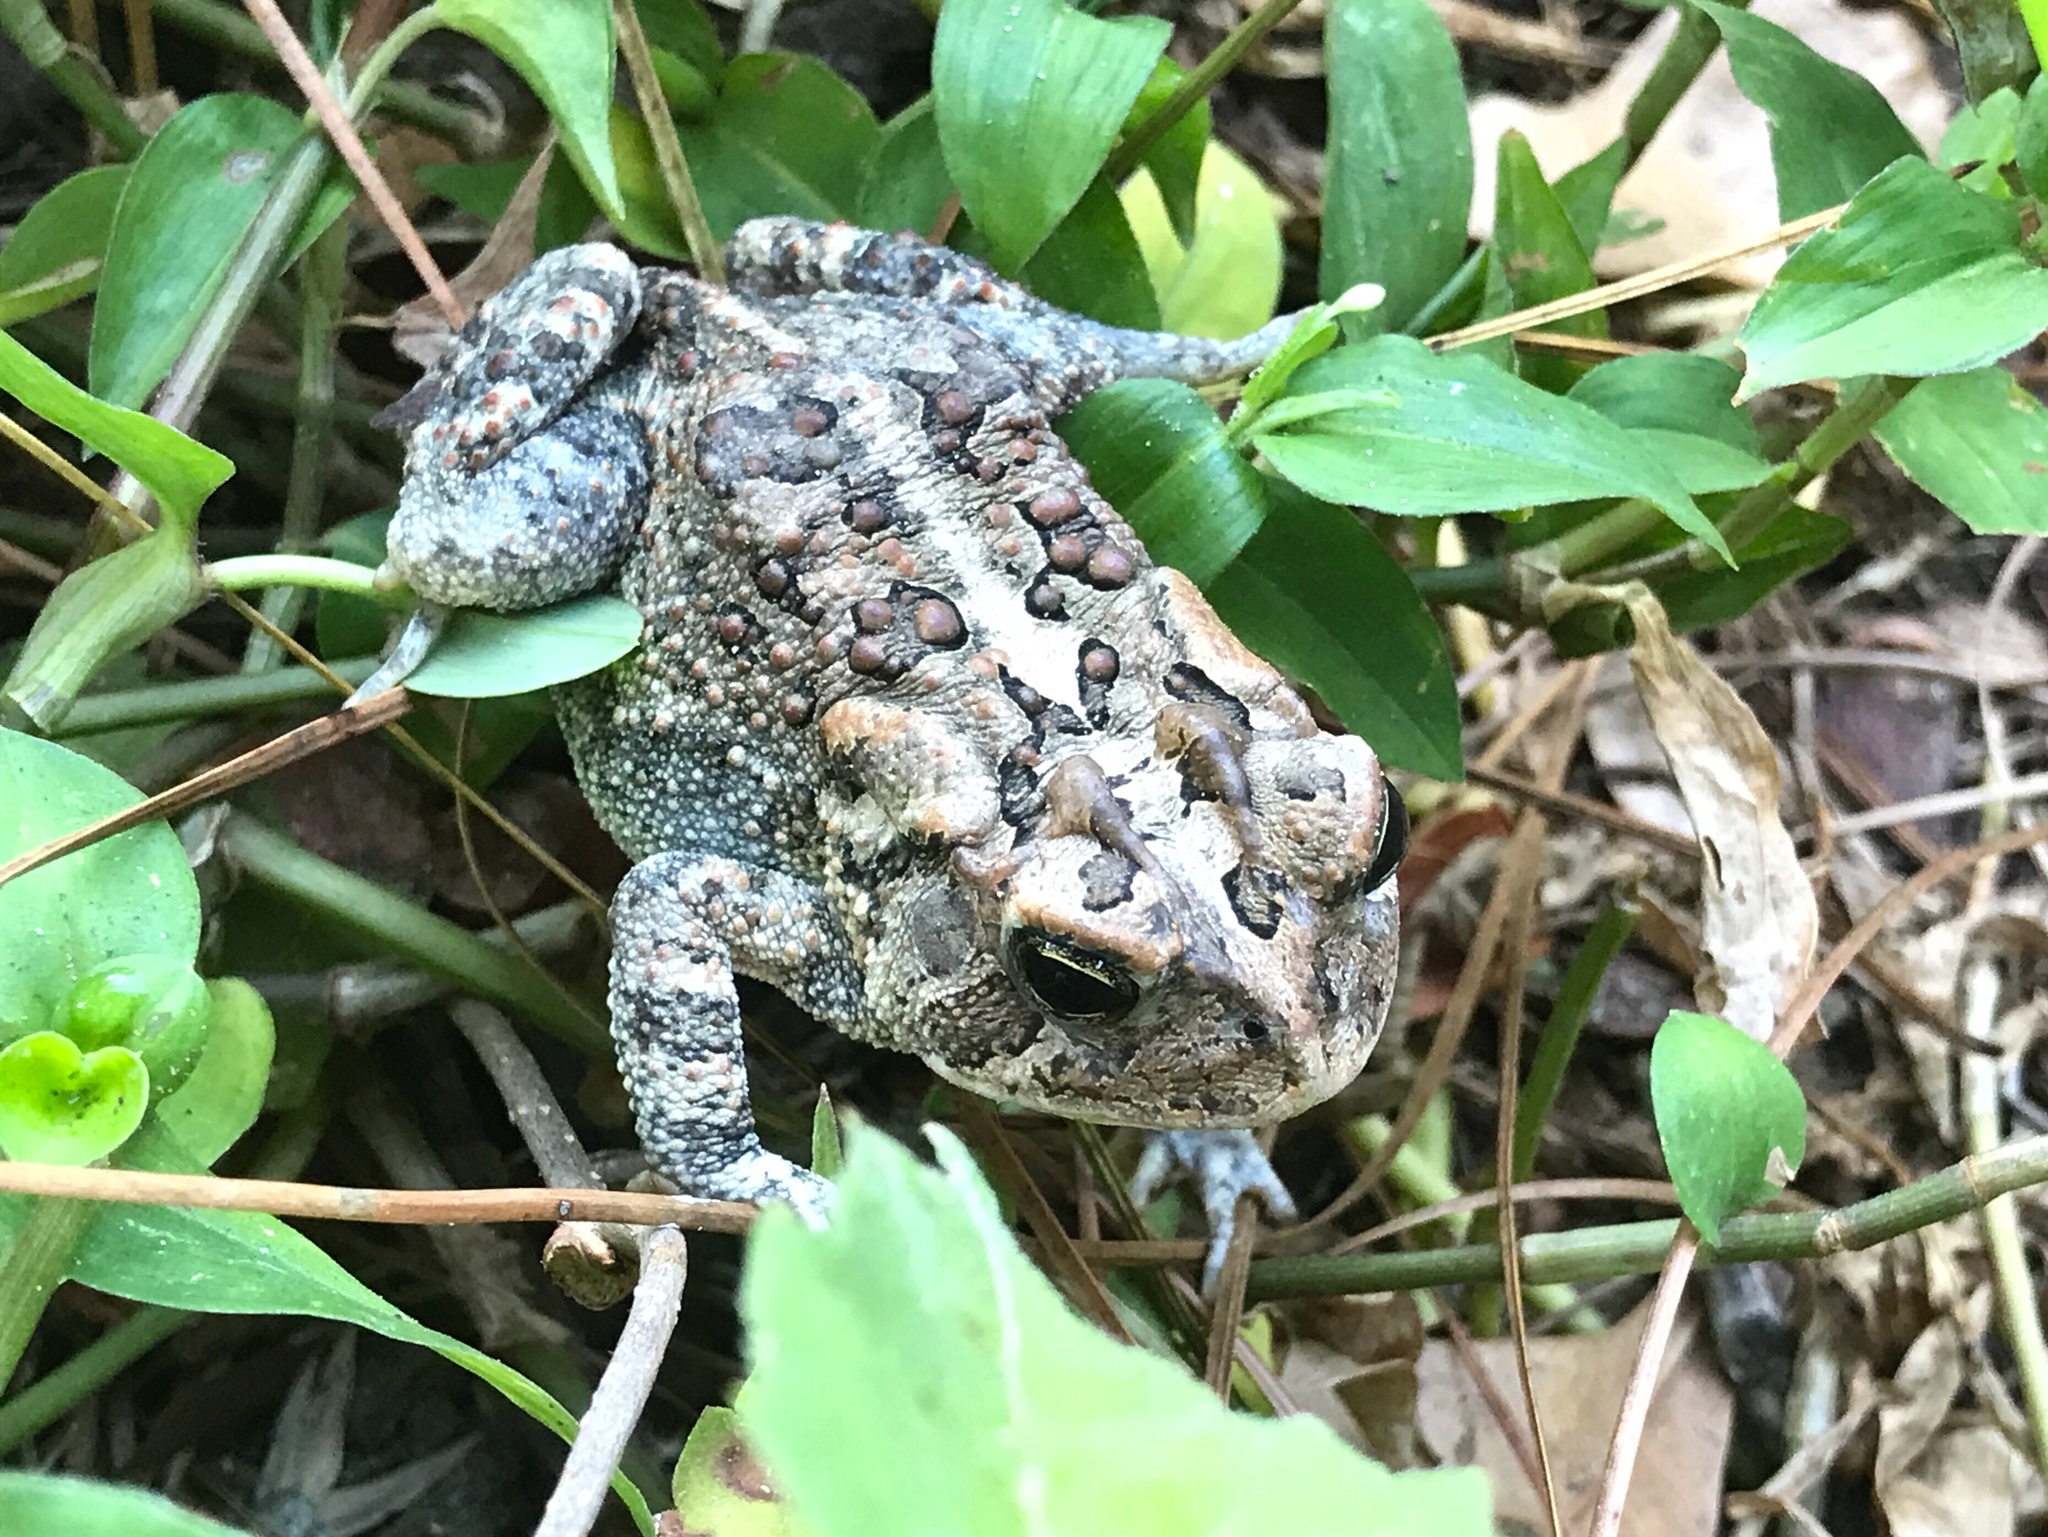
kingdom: Animalia
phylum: Chordata
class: Amphibia
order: Anura
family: Bufonidae
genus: Anaxyrus
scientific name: Anaxyrus terrestris
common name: Southern toad
